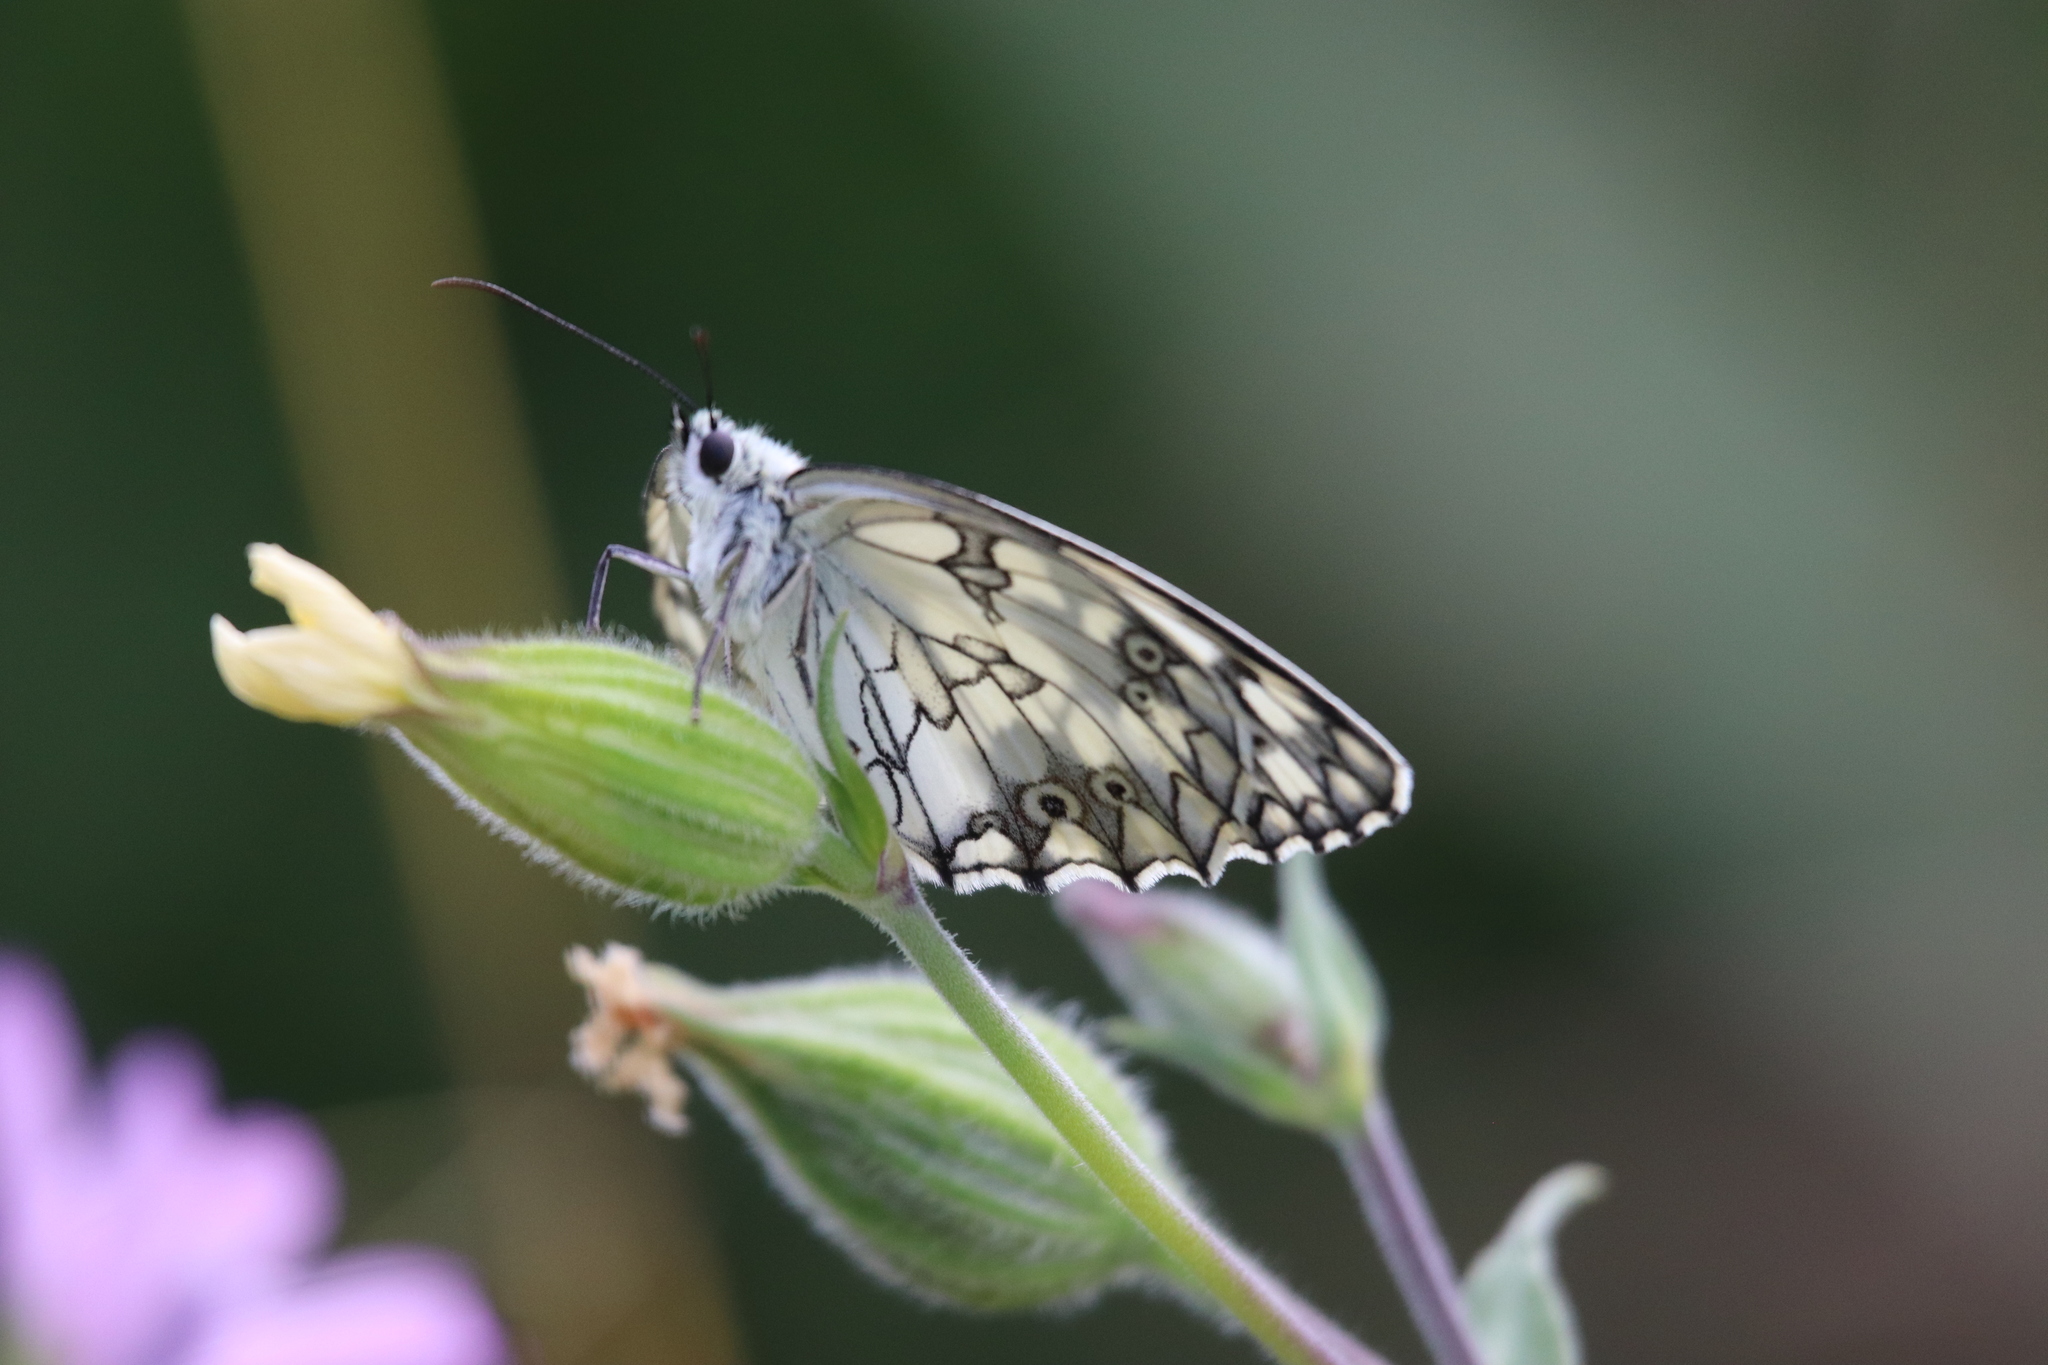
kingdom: Animalia
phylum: Arthropoda
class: Insecta
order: Lepidoptera
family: Nymphalidae
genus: Melanargia
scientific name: Melanargia lachesis
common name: Iberian marbled white
